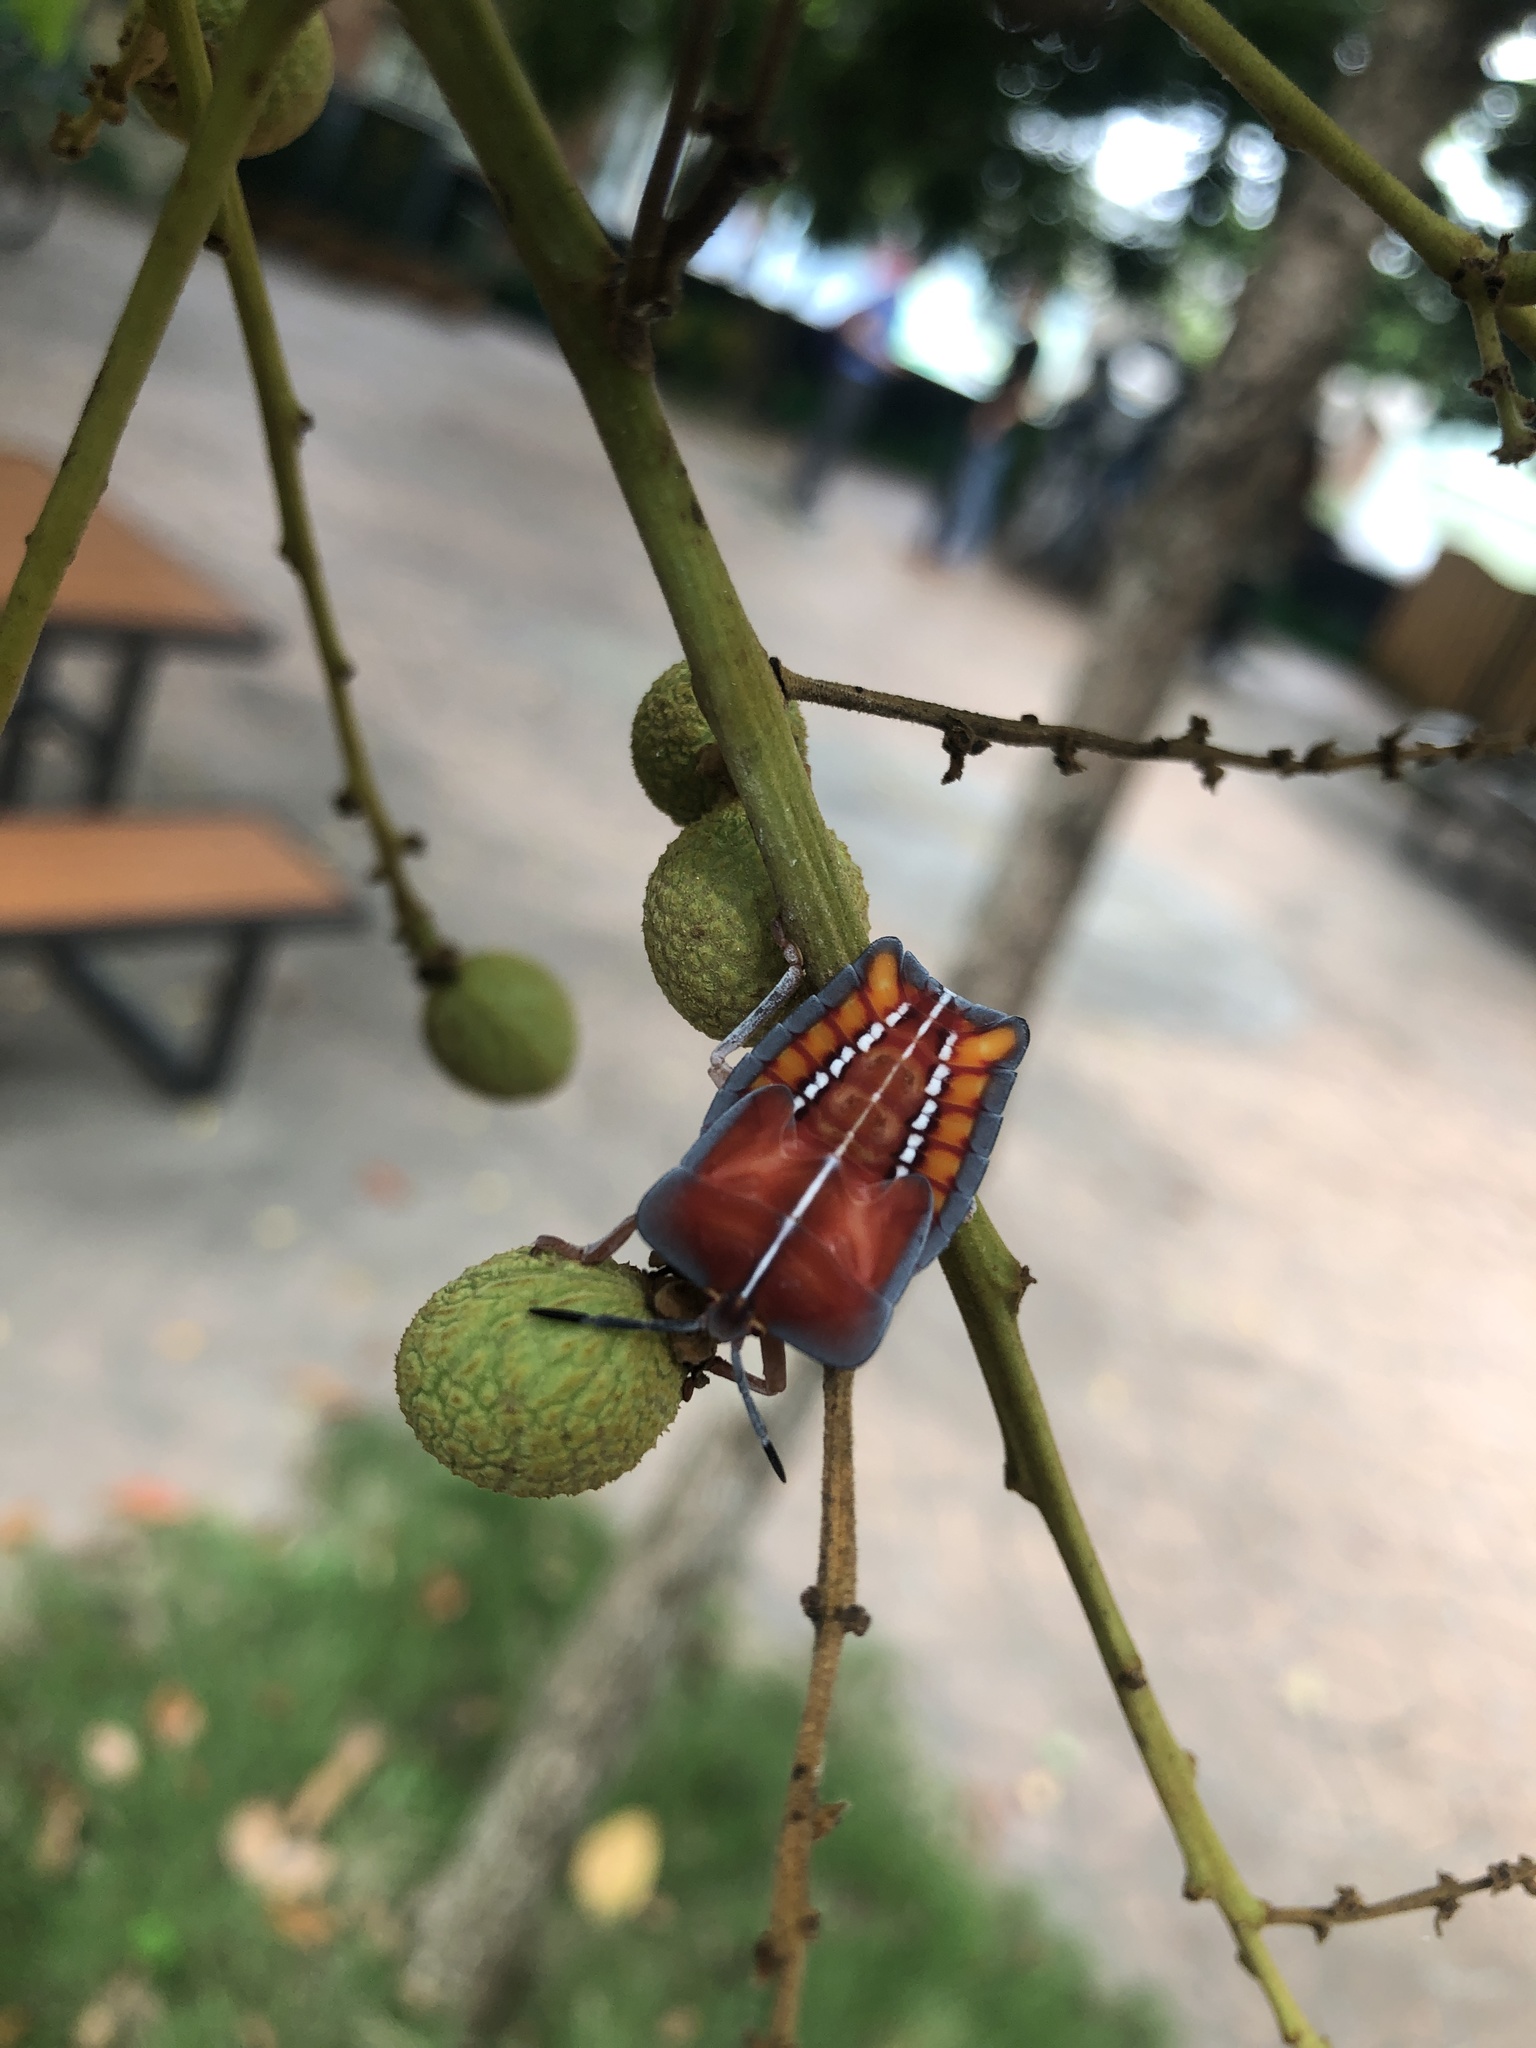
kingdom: Animalia
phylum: Arthropoda
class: Insecta
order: Hemiptera
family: Tessaratomidae
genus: Tessaratoma
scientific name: Tessaratoma papillosa
